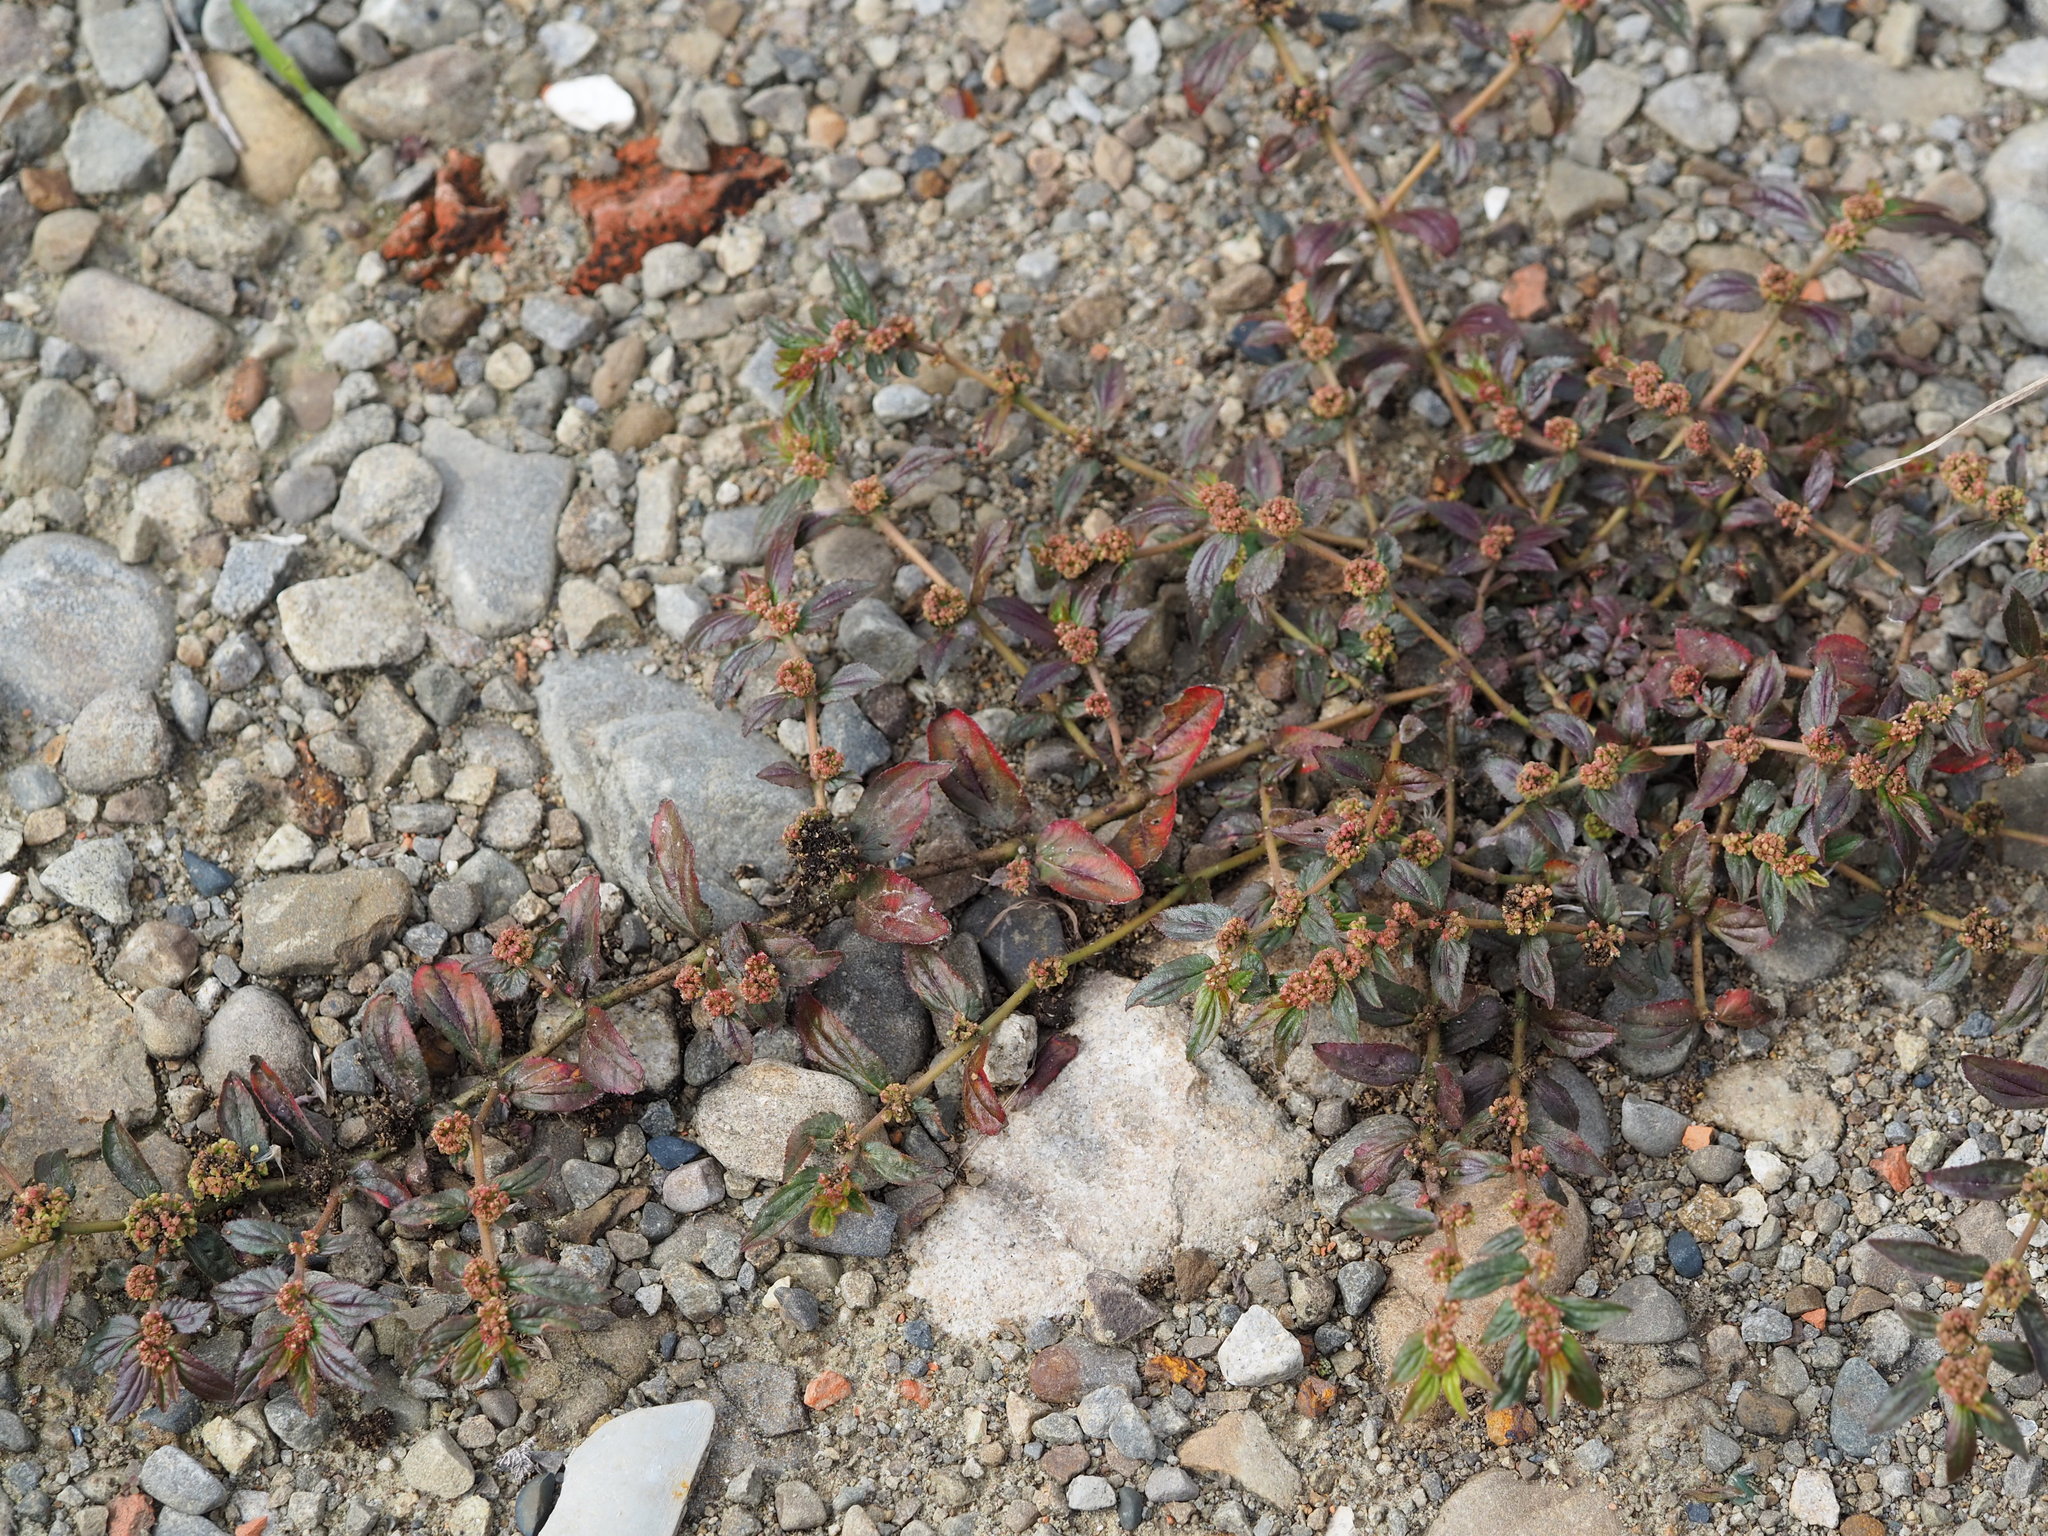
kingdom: Plantae
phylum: Tracheophyta
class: Magnoliopsida
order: Malpighiales
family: Euphorbiaceae
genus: Euphorbia
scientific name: Euphorbia hirta
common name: Pillpod sandmat
